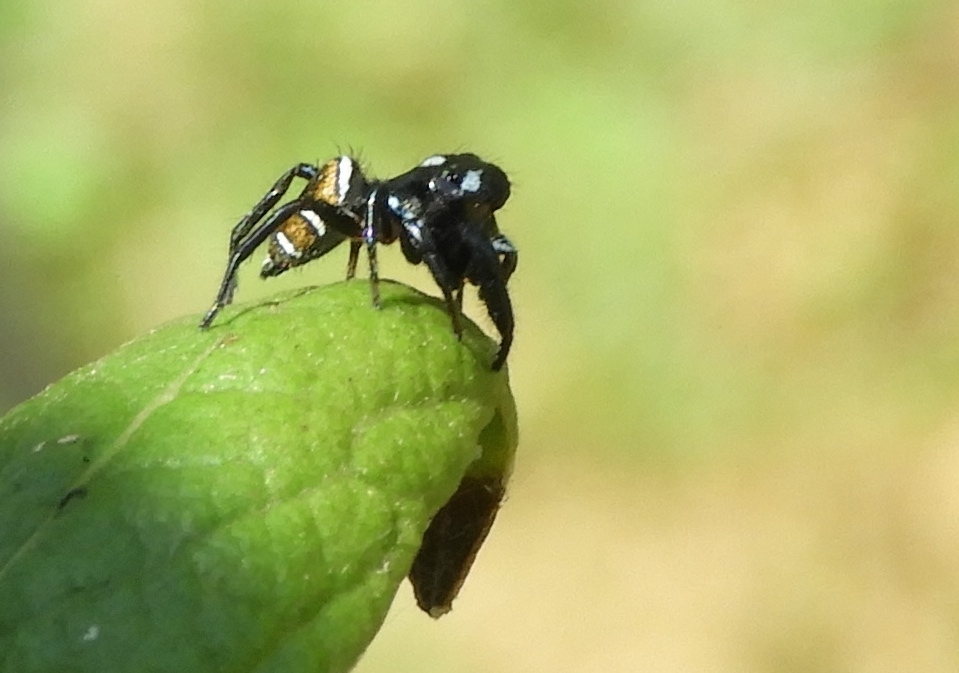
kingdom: Animalia
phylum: Arthropoda
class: Arachnida
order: Araneae
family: Salticidae
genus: Sassacus
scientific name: Sassacus
